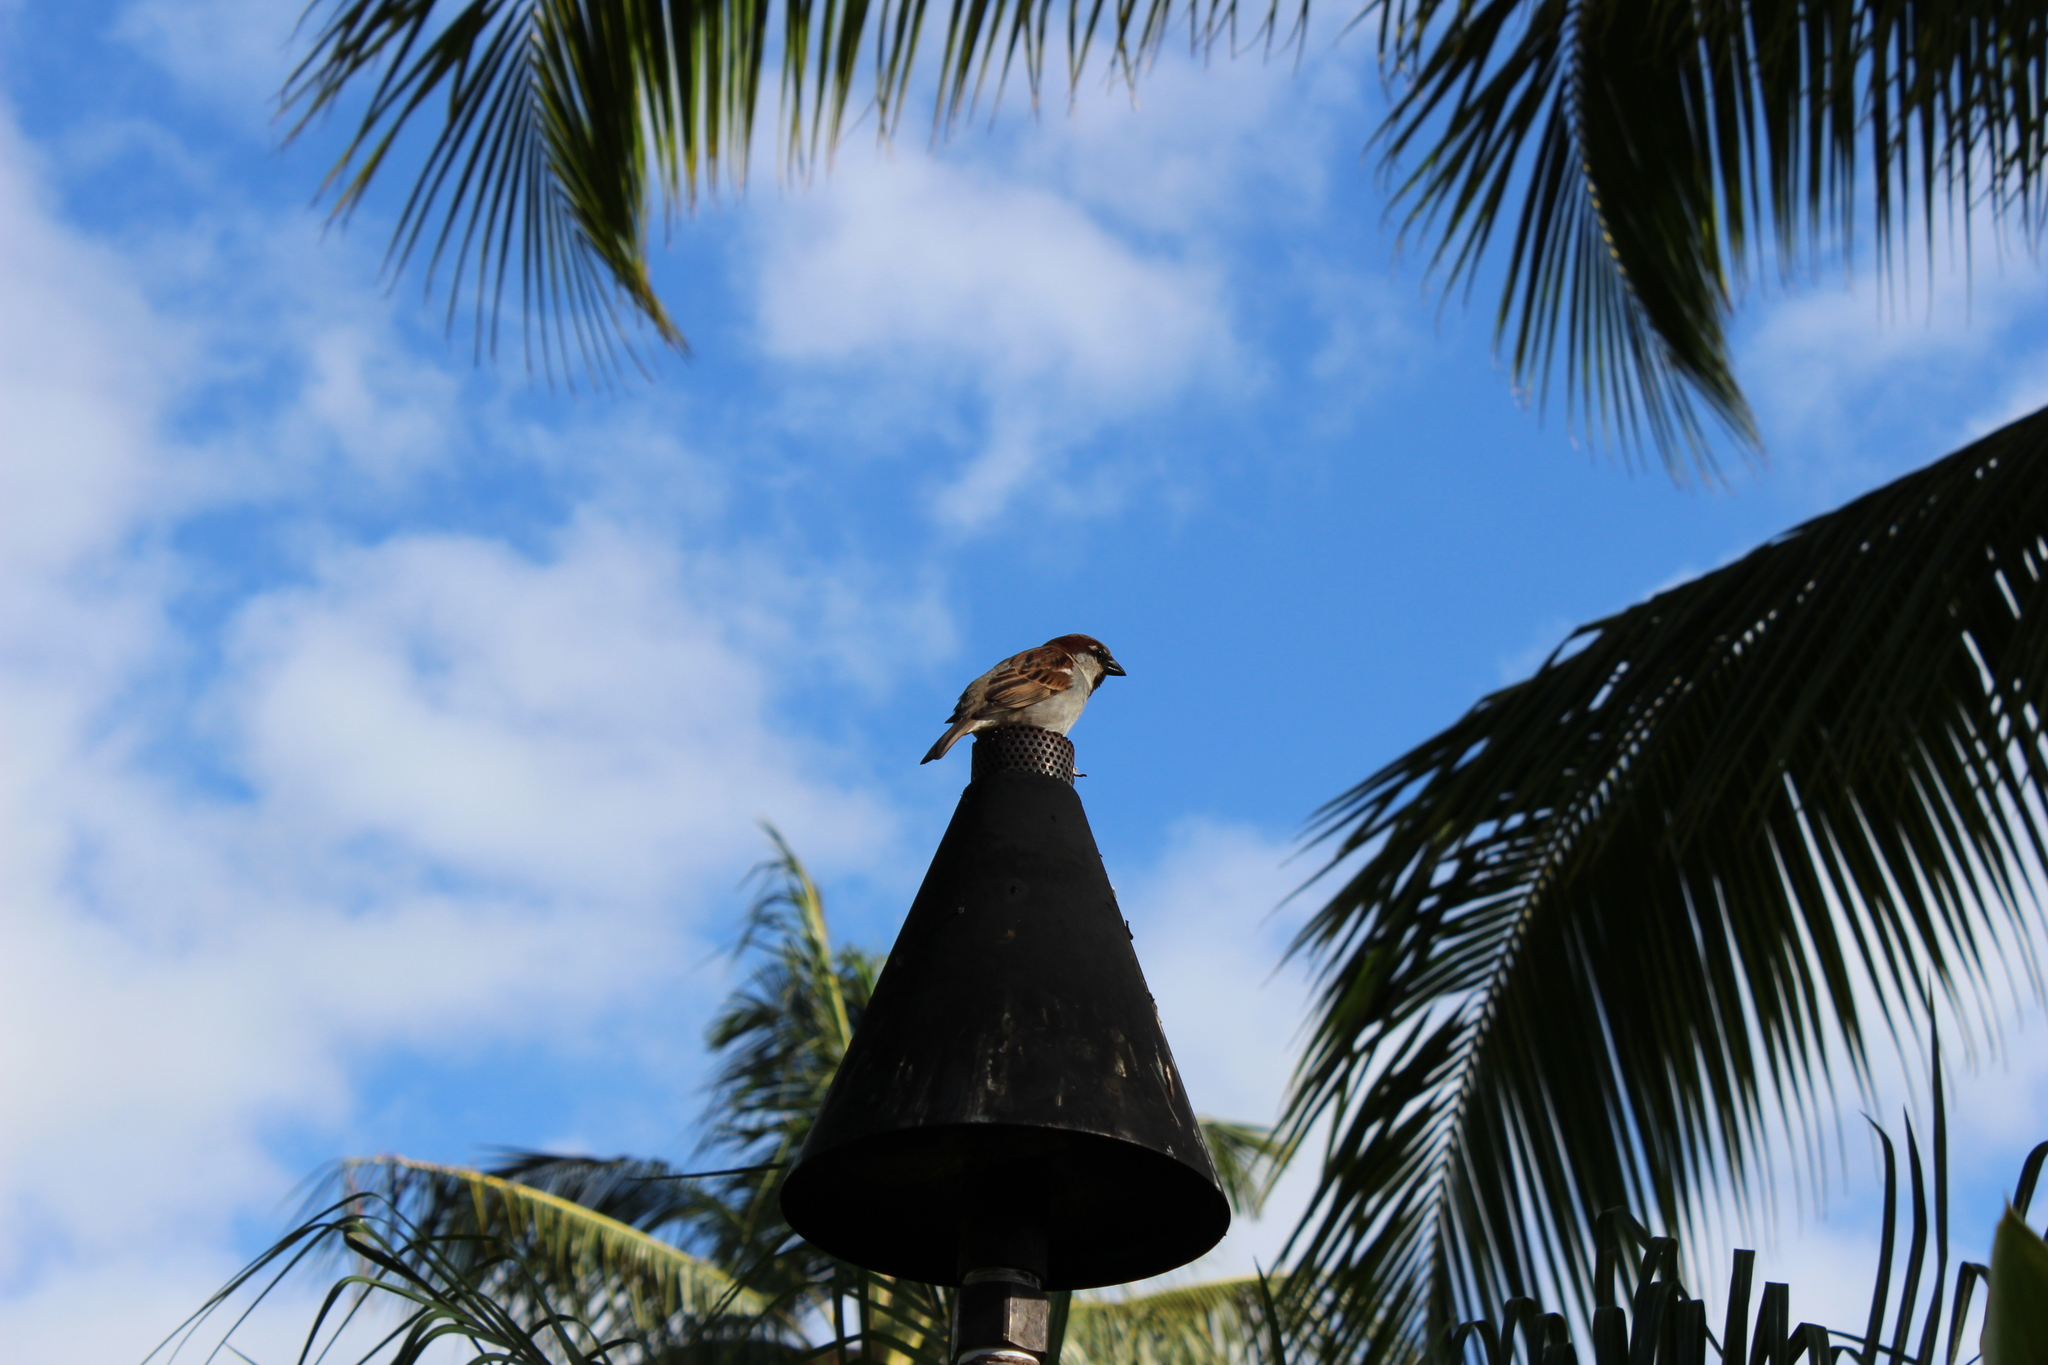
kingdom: Animalia
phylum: Chordata
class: Aves
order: Passeriformes
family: Passeridae
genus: Passer
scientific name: Passer domesticus
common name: House sparrow
